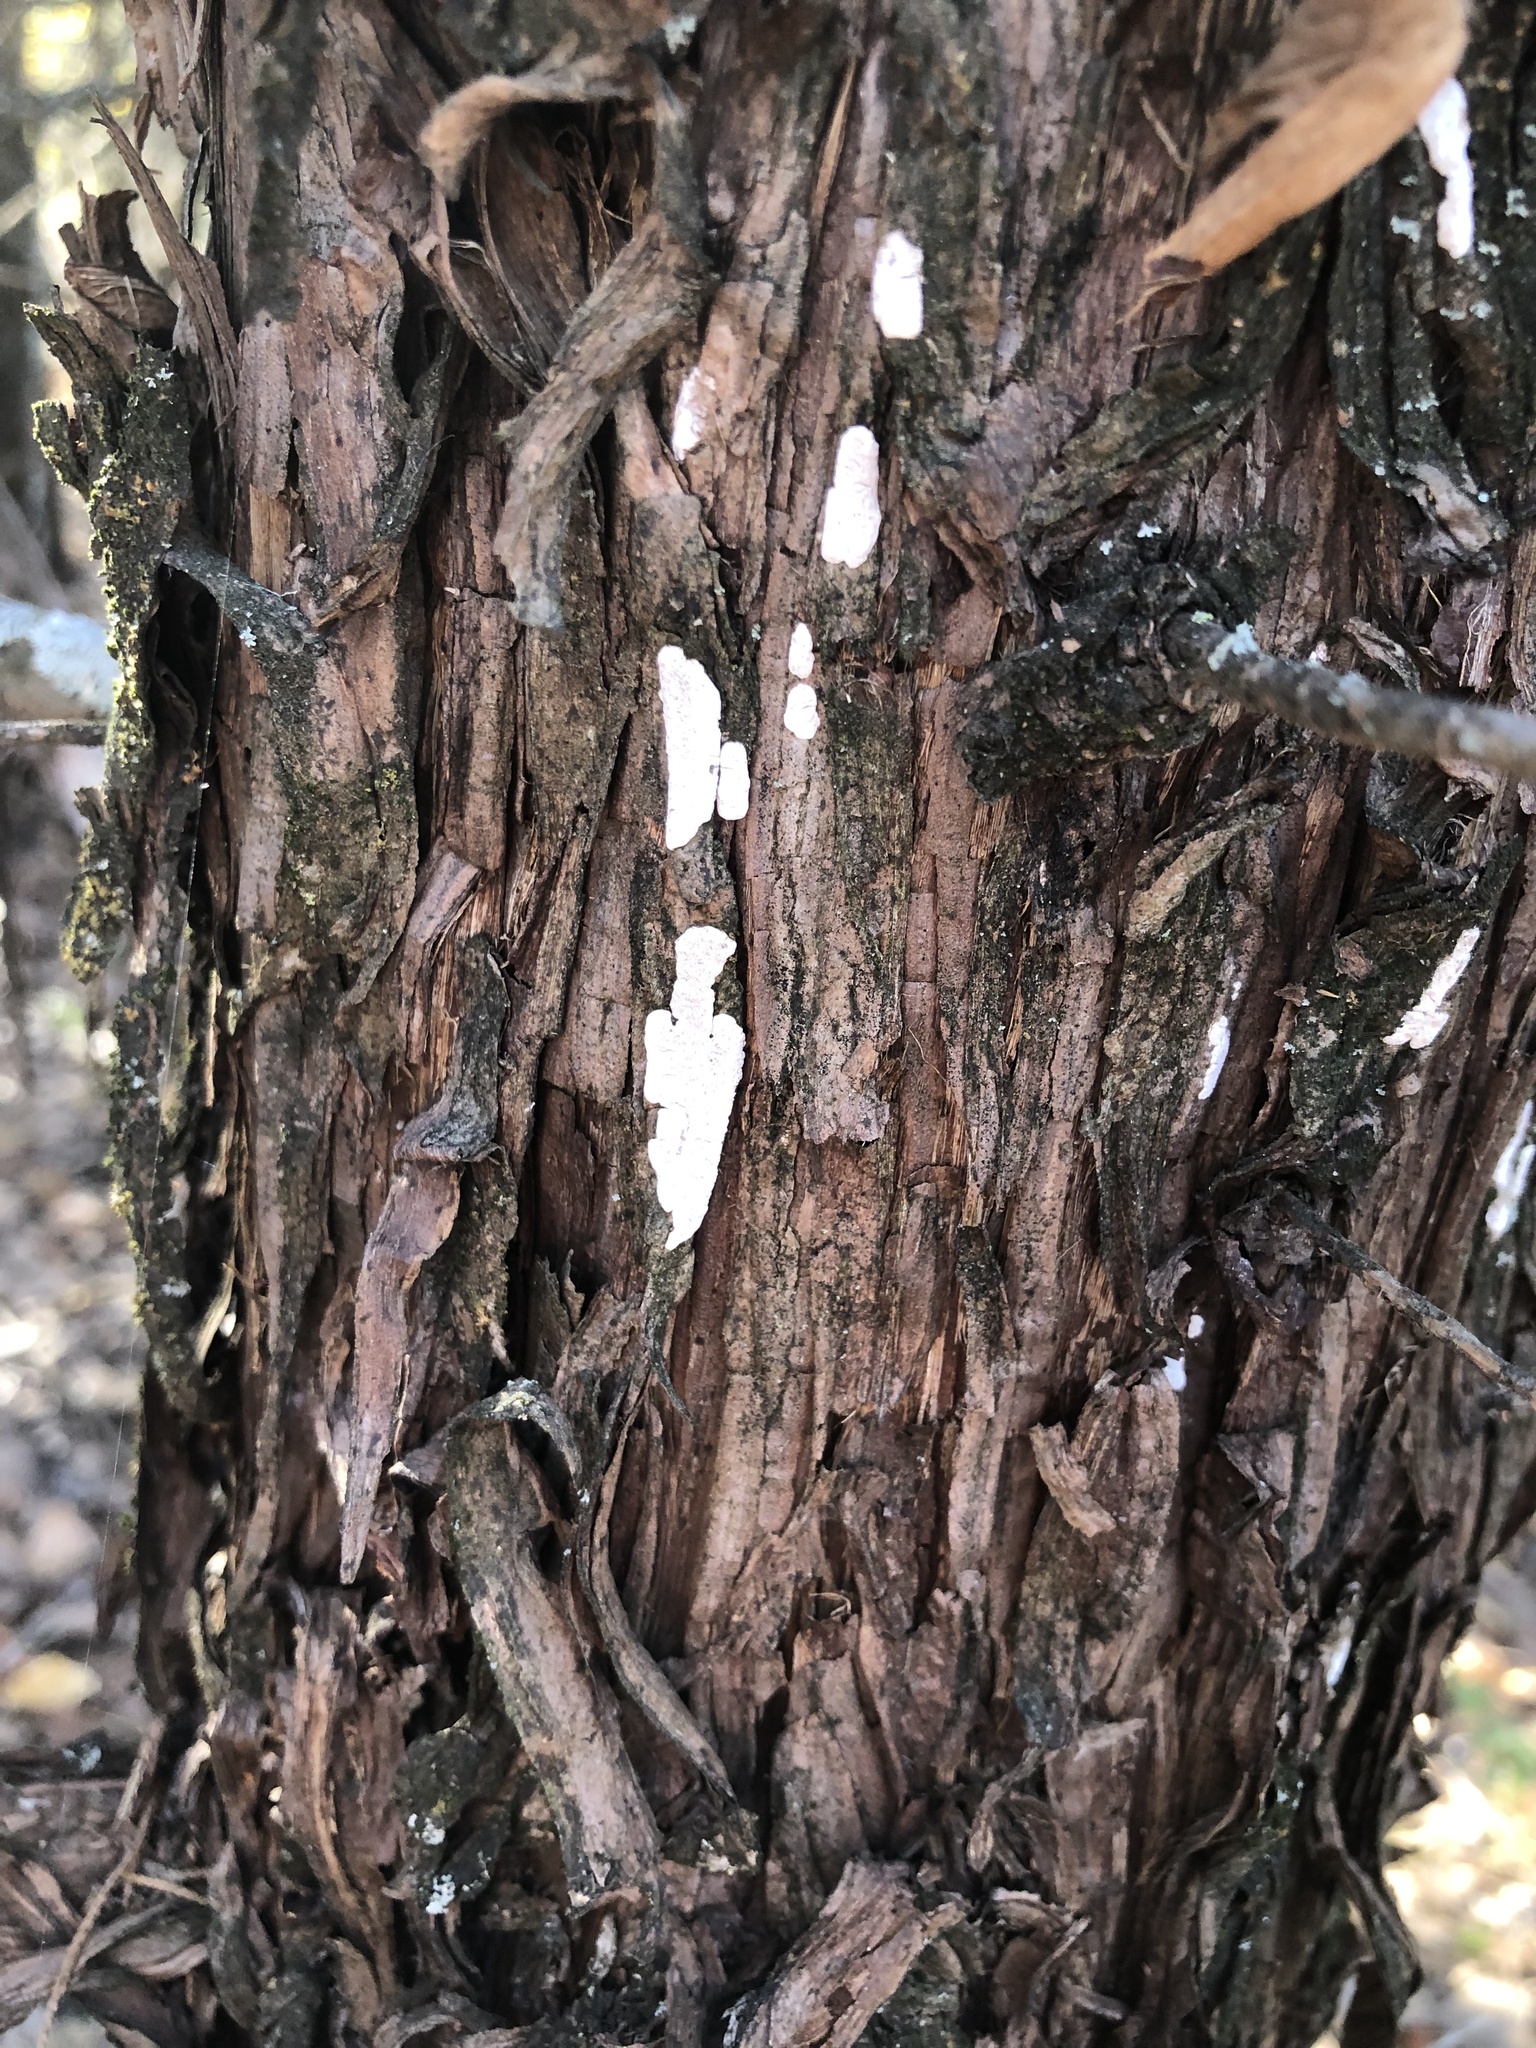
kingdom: Fungi
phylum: Basidiomycota
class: Agaricomycetes
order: Agaricales
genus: Dendrothele
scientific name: Dendrothele nivosa
